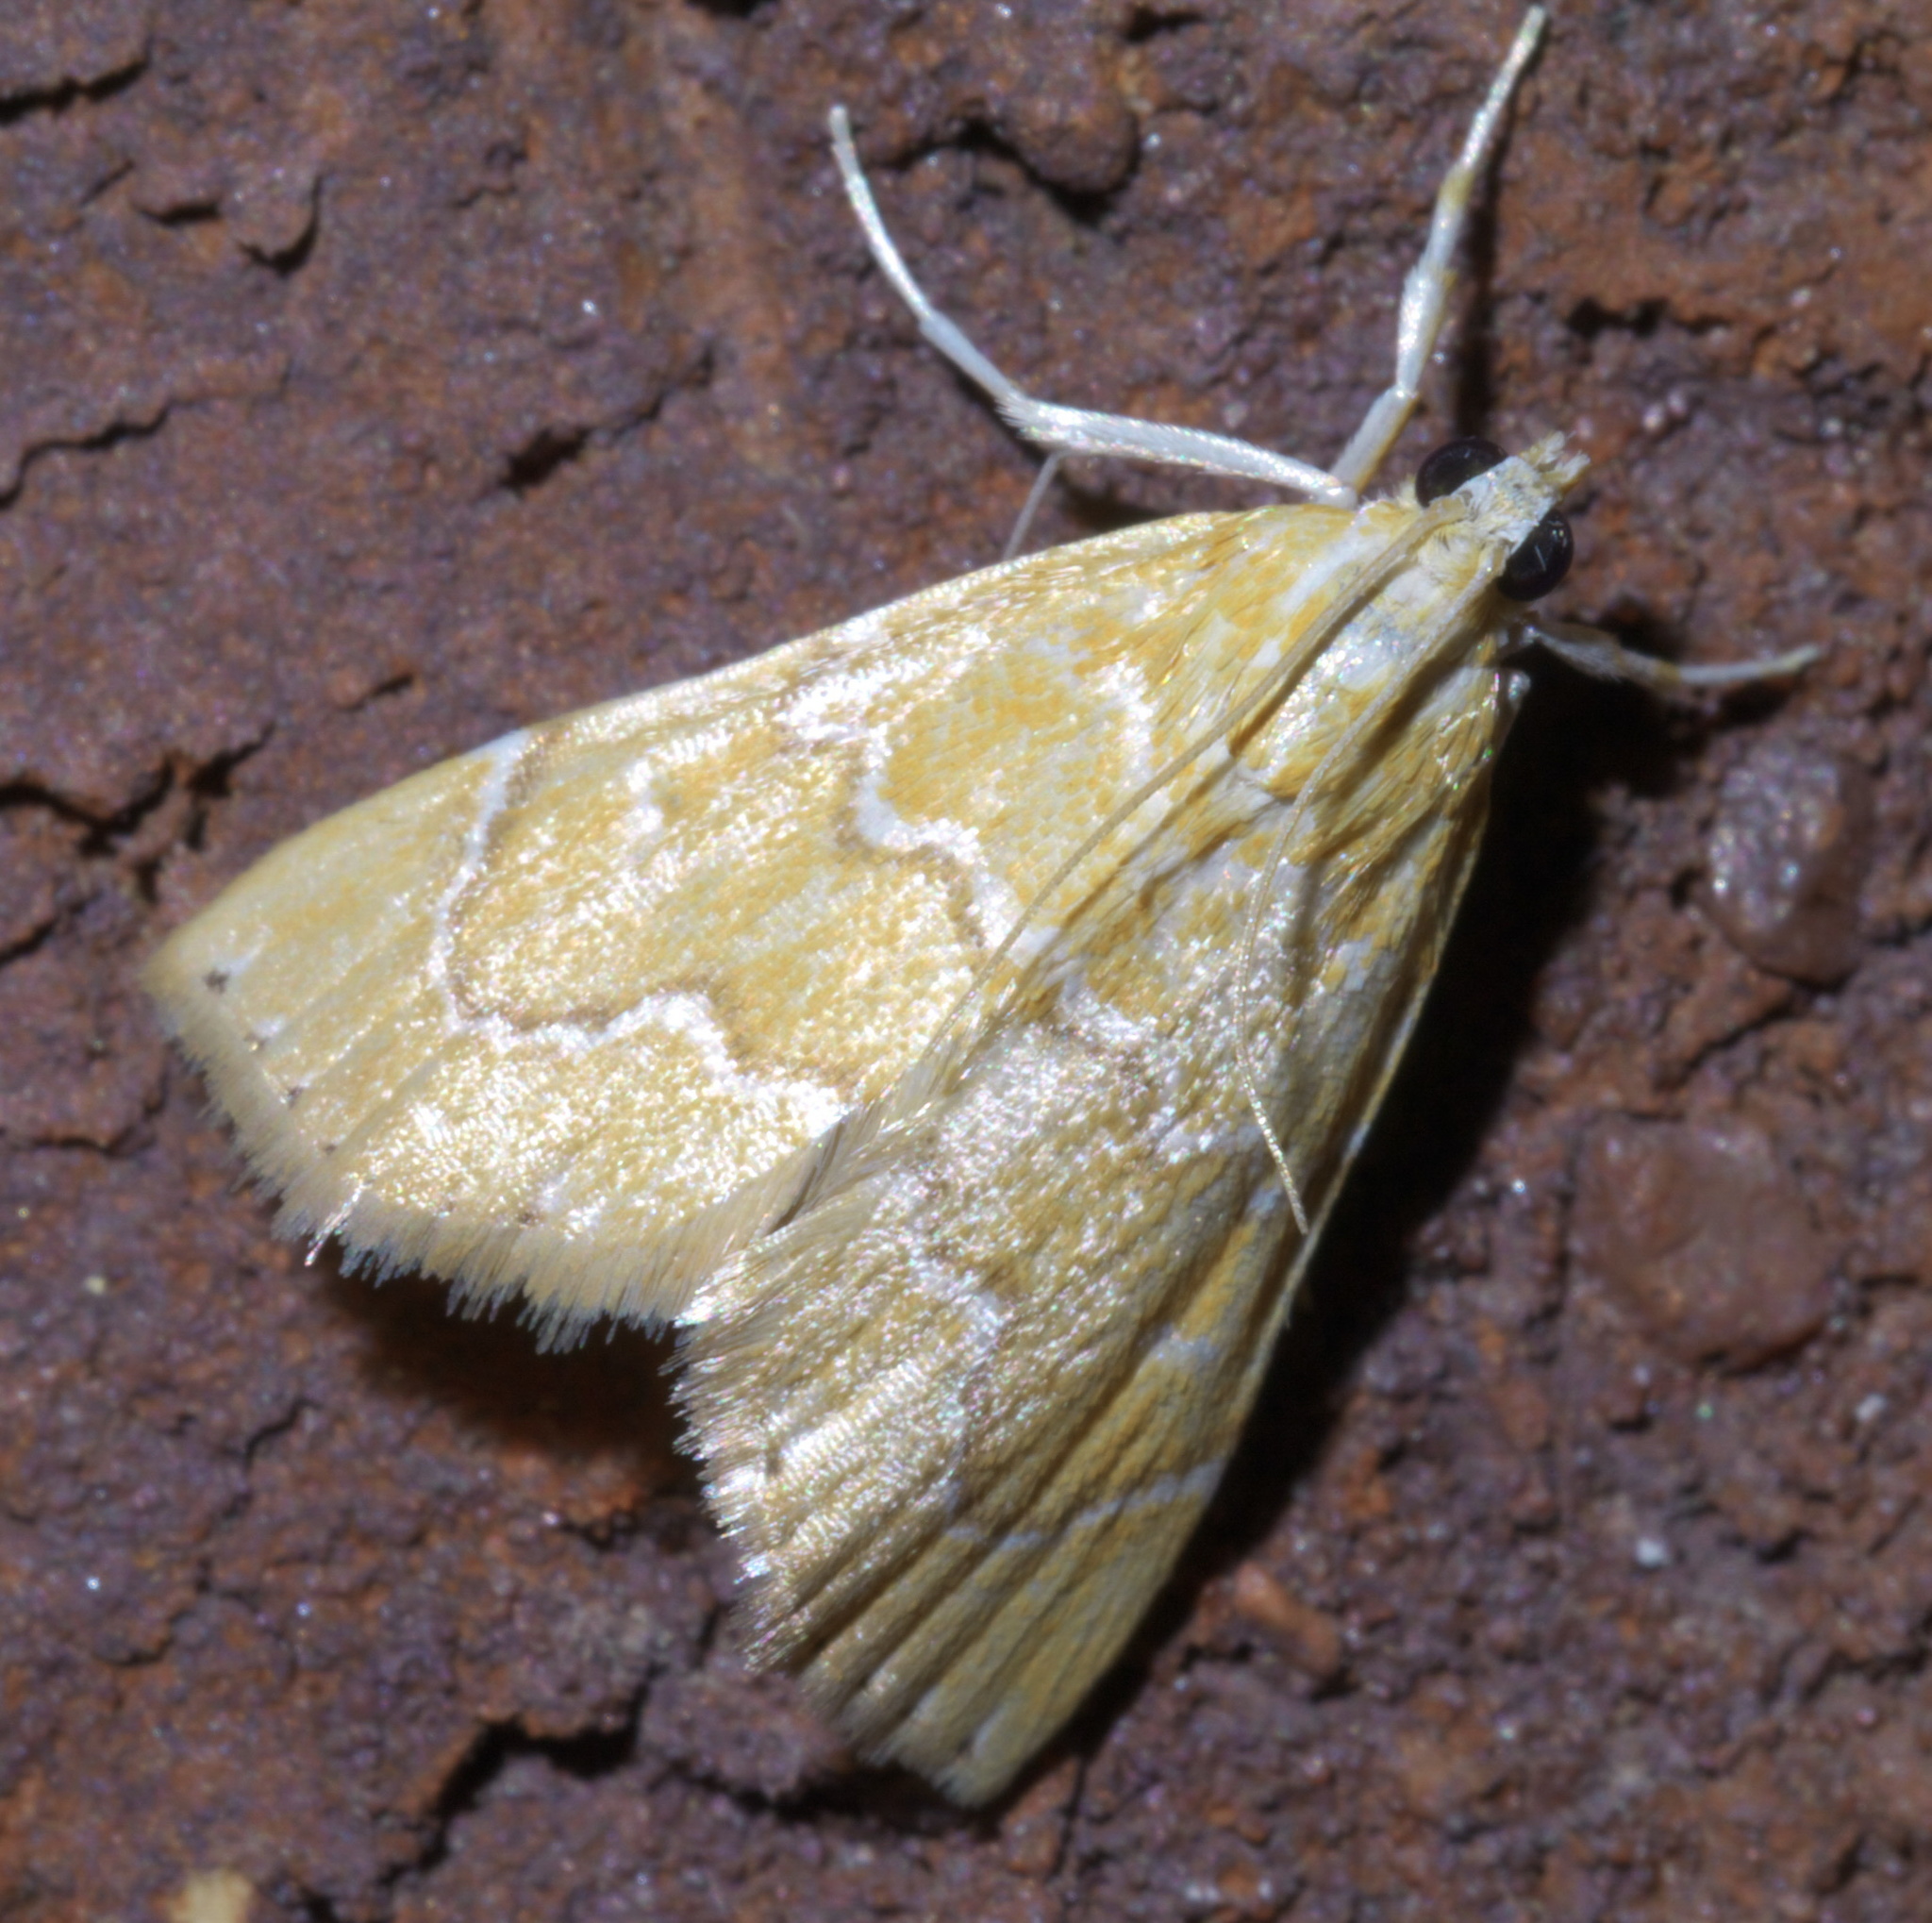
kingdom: Animalia
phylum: Arthropoda
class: Insecta
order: Lepidoptera
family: Crambidae
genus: Glaphyria
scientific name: Glaphyria sesquistrialis
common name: White-roped glaphyria
